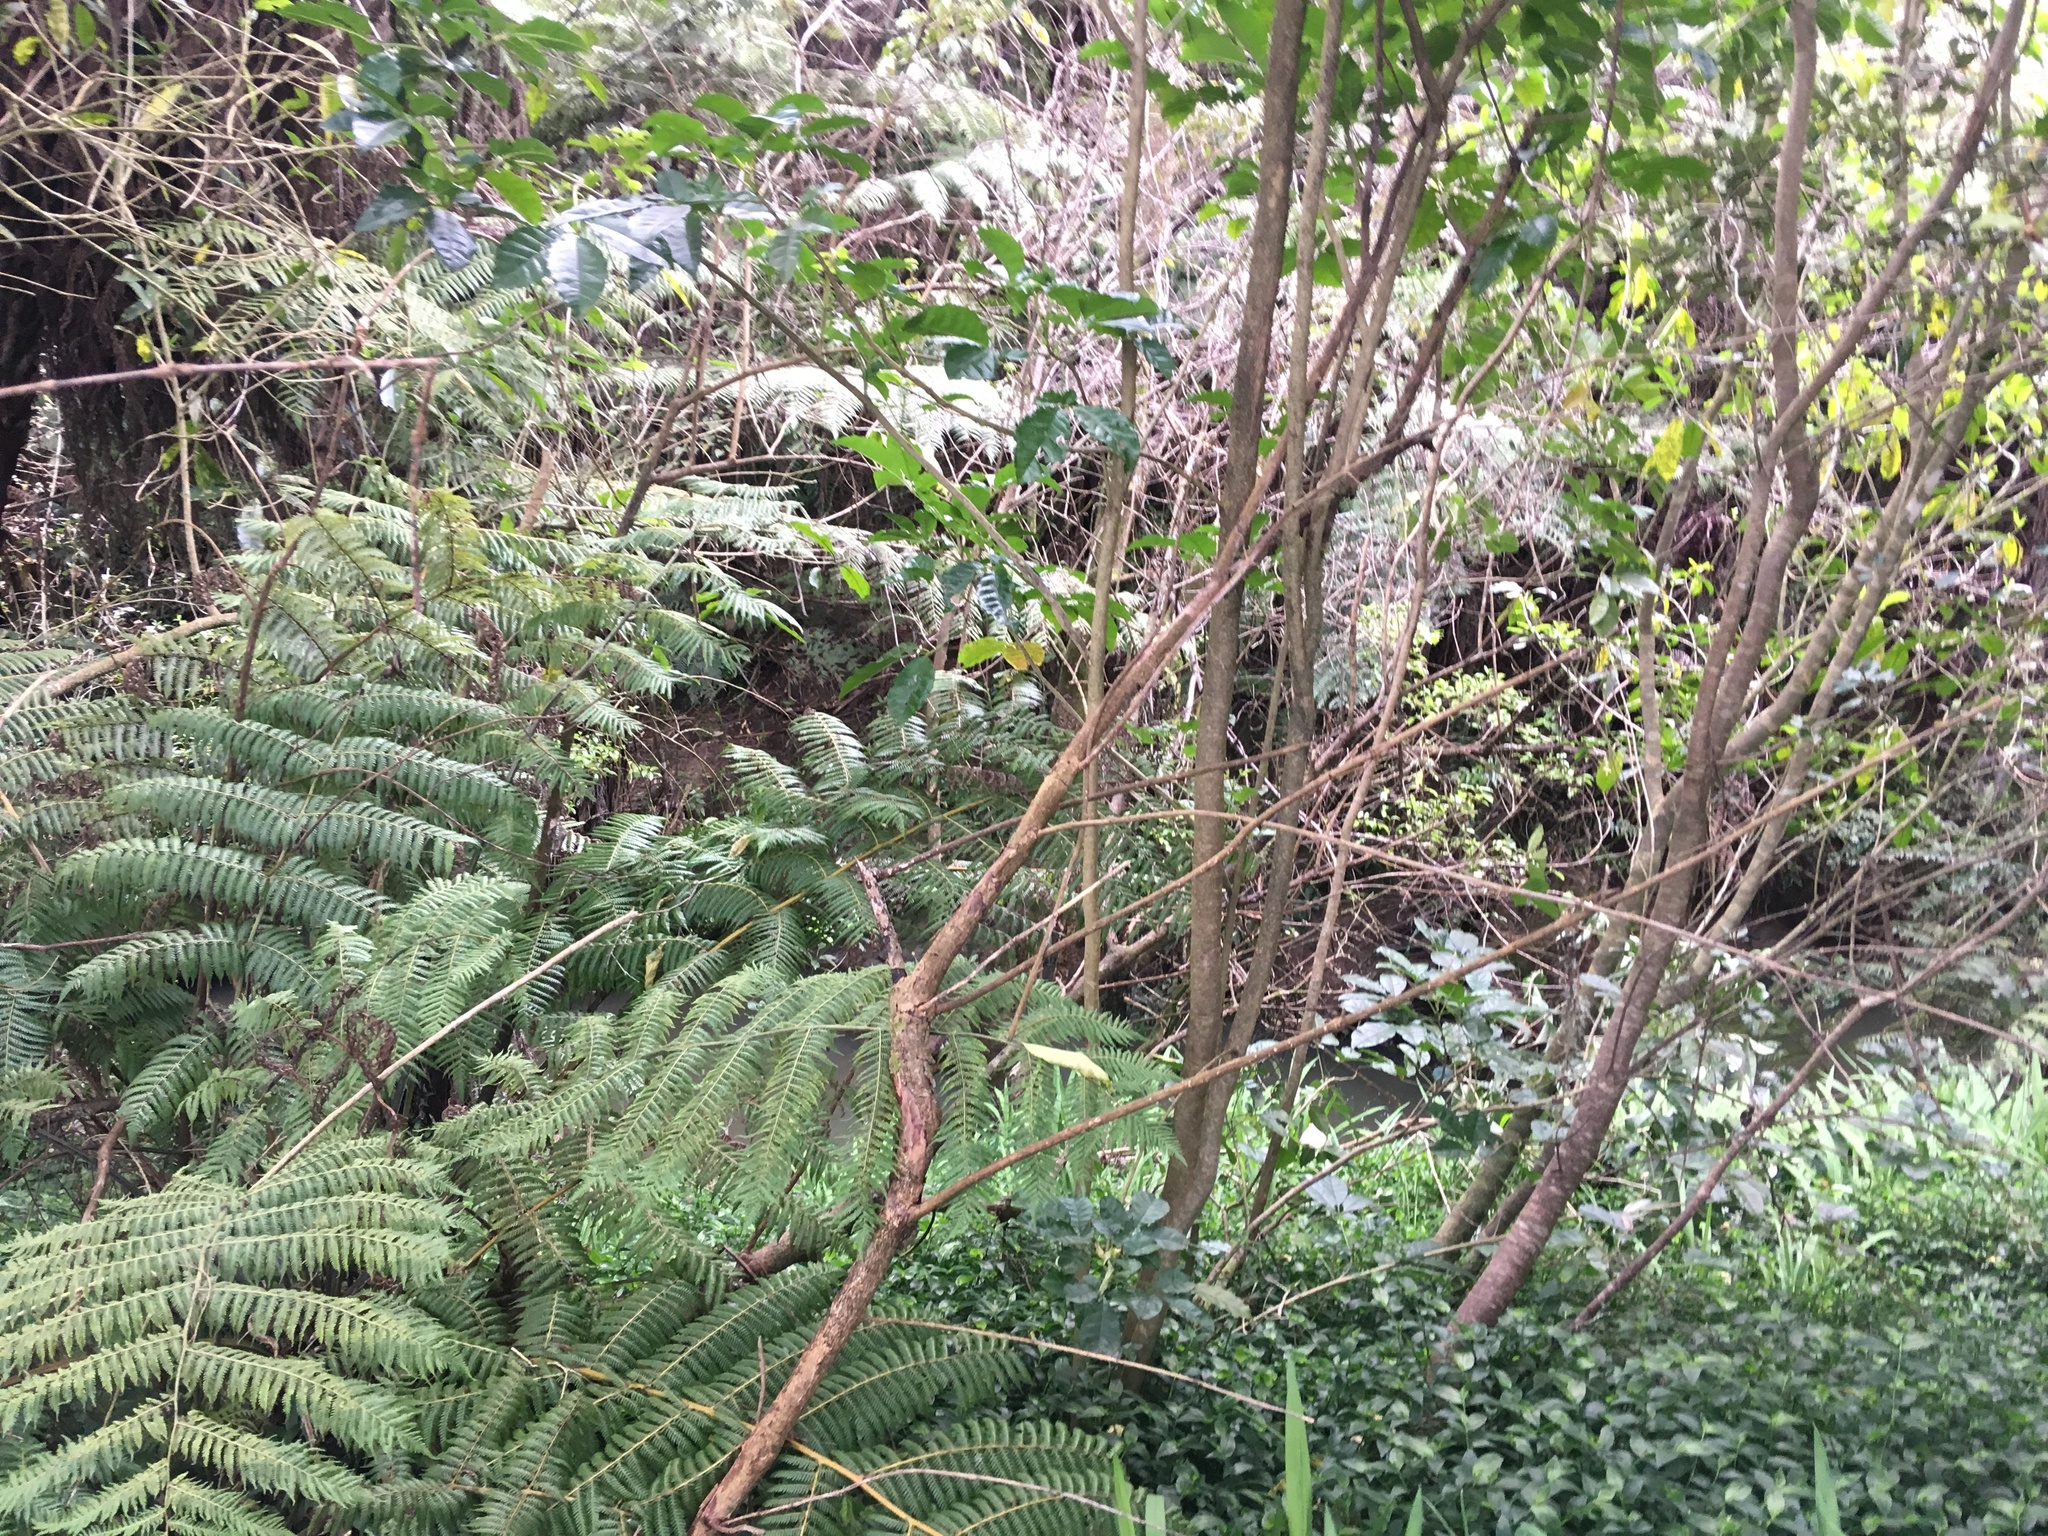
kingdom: Plantae
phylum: Tracheophyta
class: Polypodiopsida
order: Cyatheales
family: Cyatheaceae
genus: Alsophila
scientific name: Alsophila dealbata
